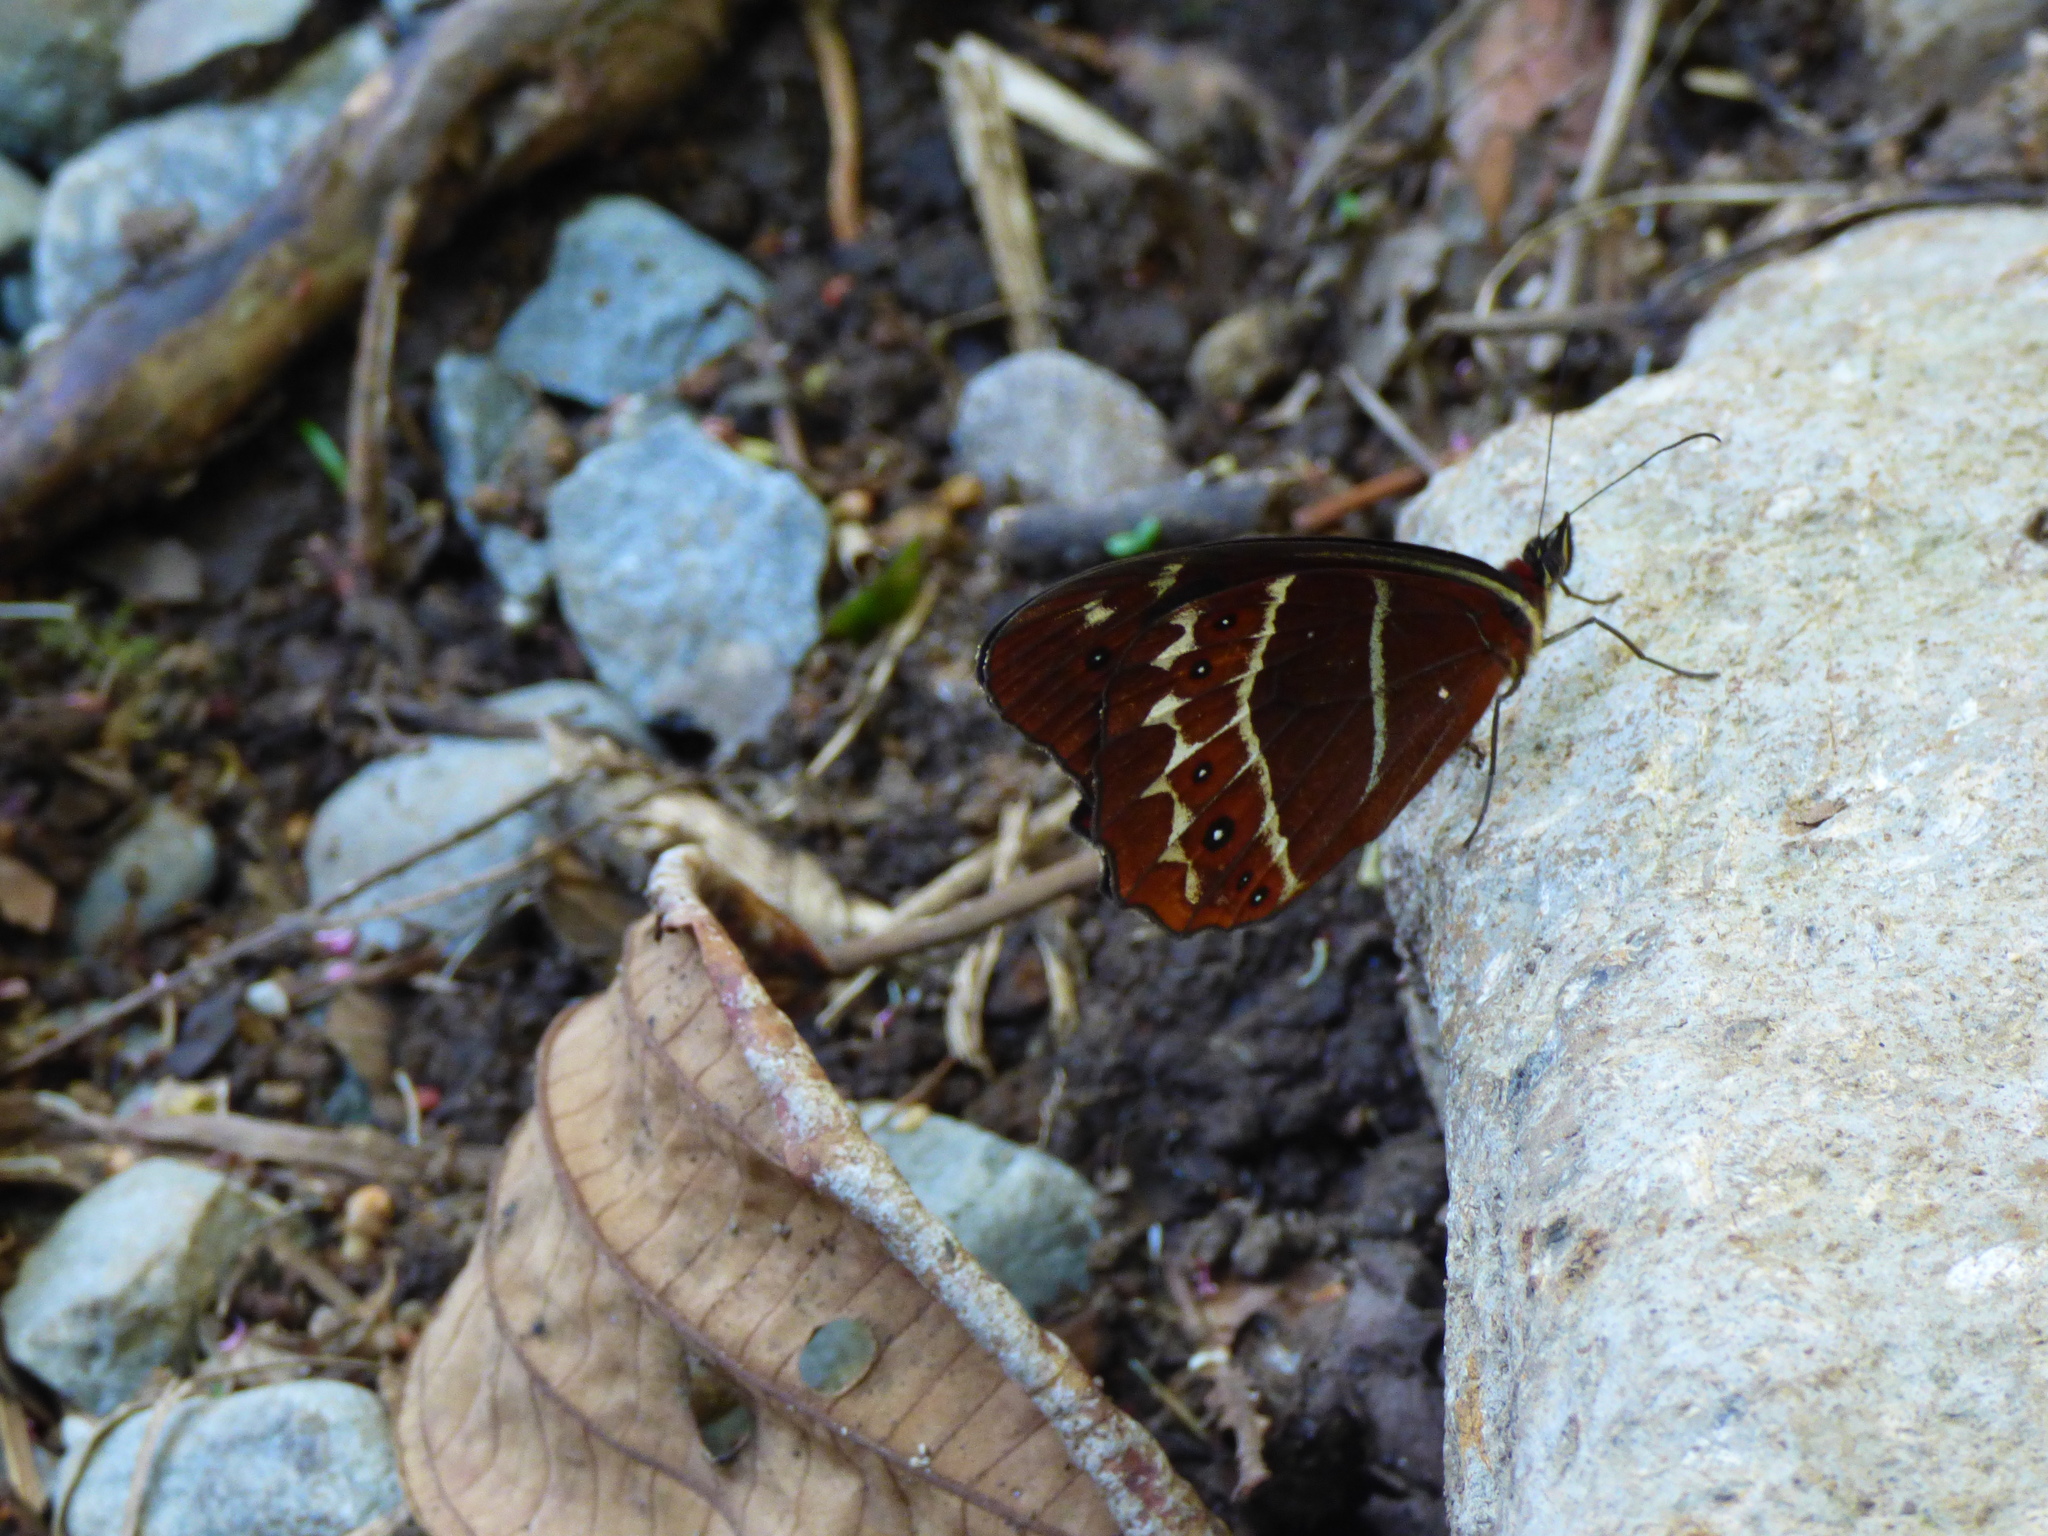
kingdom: Animalia
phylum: Arthropoda
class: Insecta
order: Lepidoptera
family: Nymphalidae
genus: Oxeoschistus
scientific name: Oxeoschistus puerta
